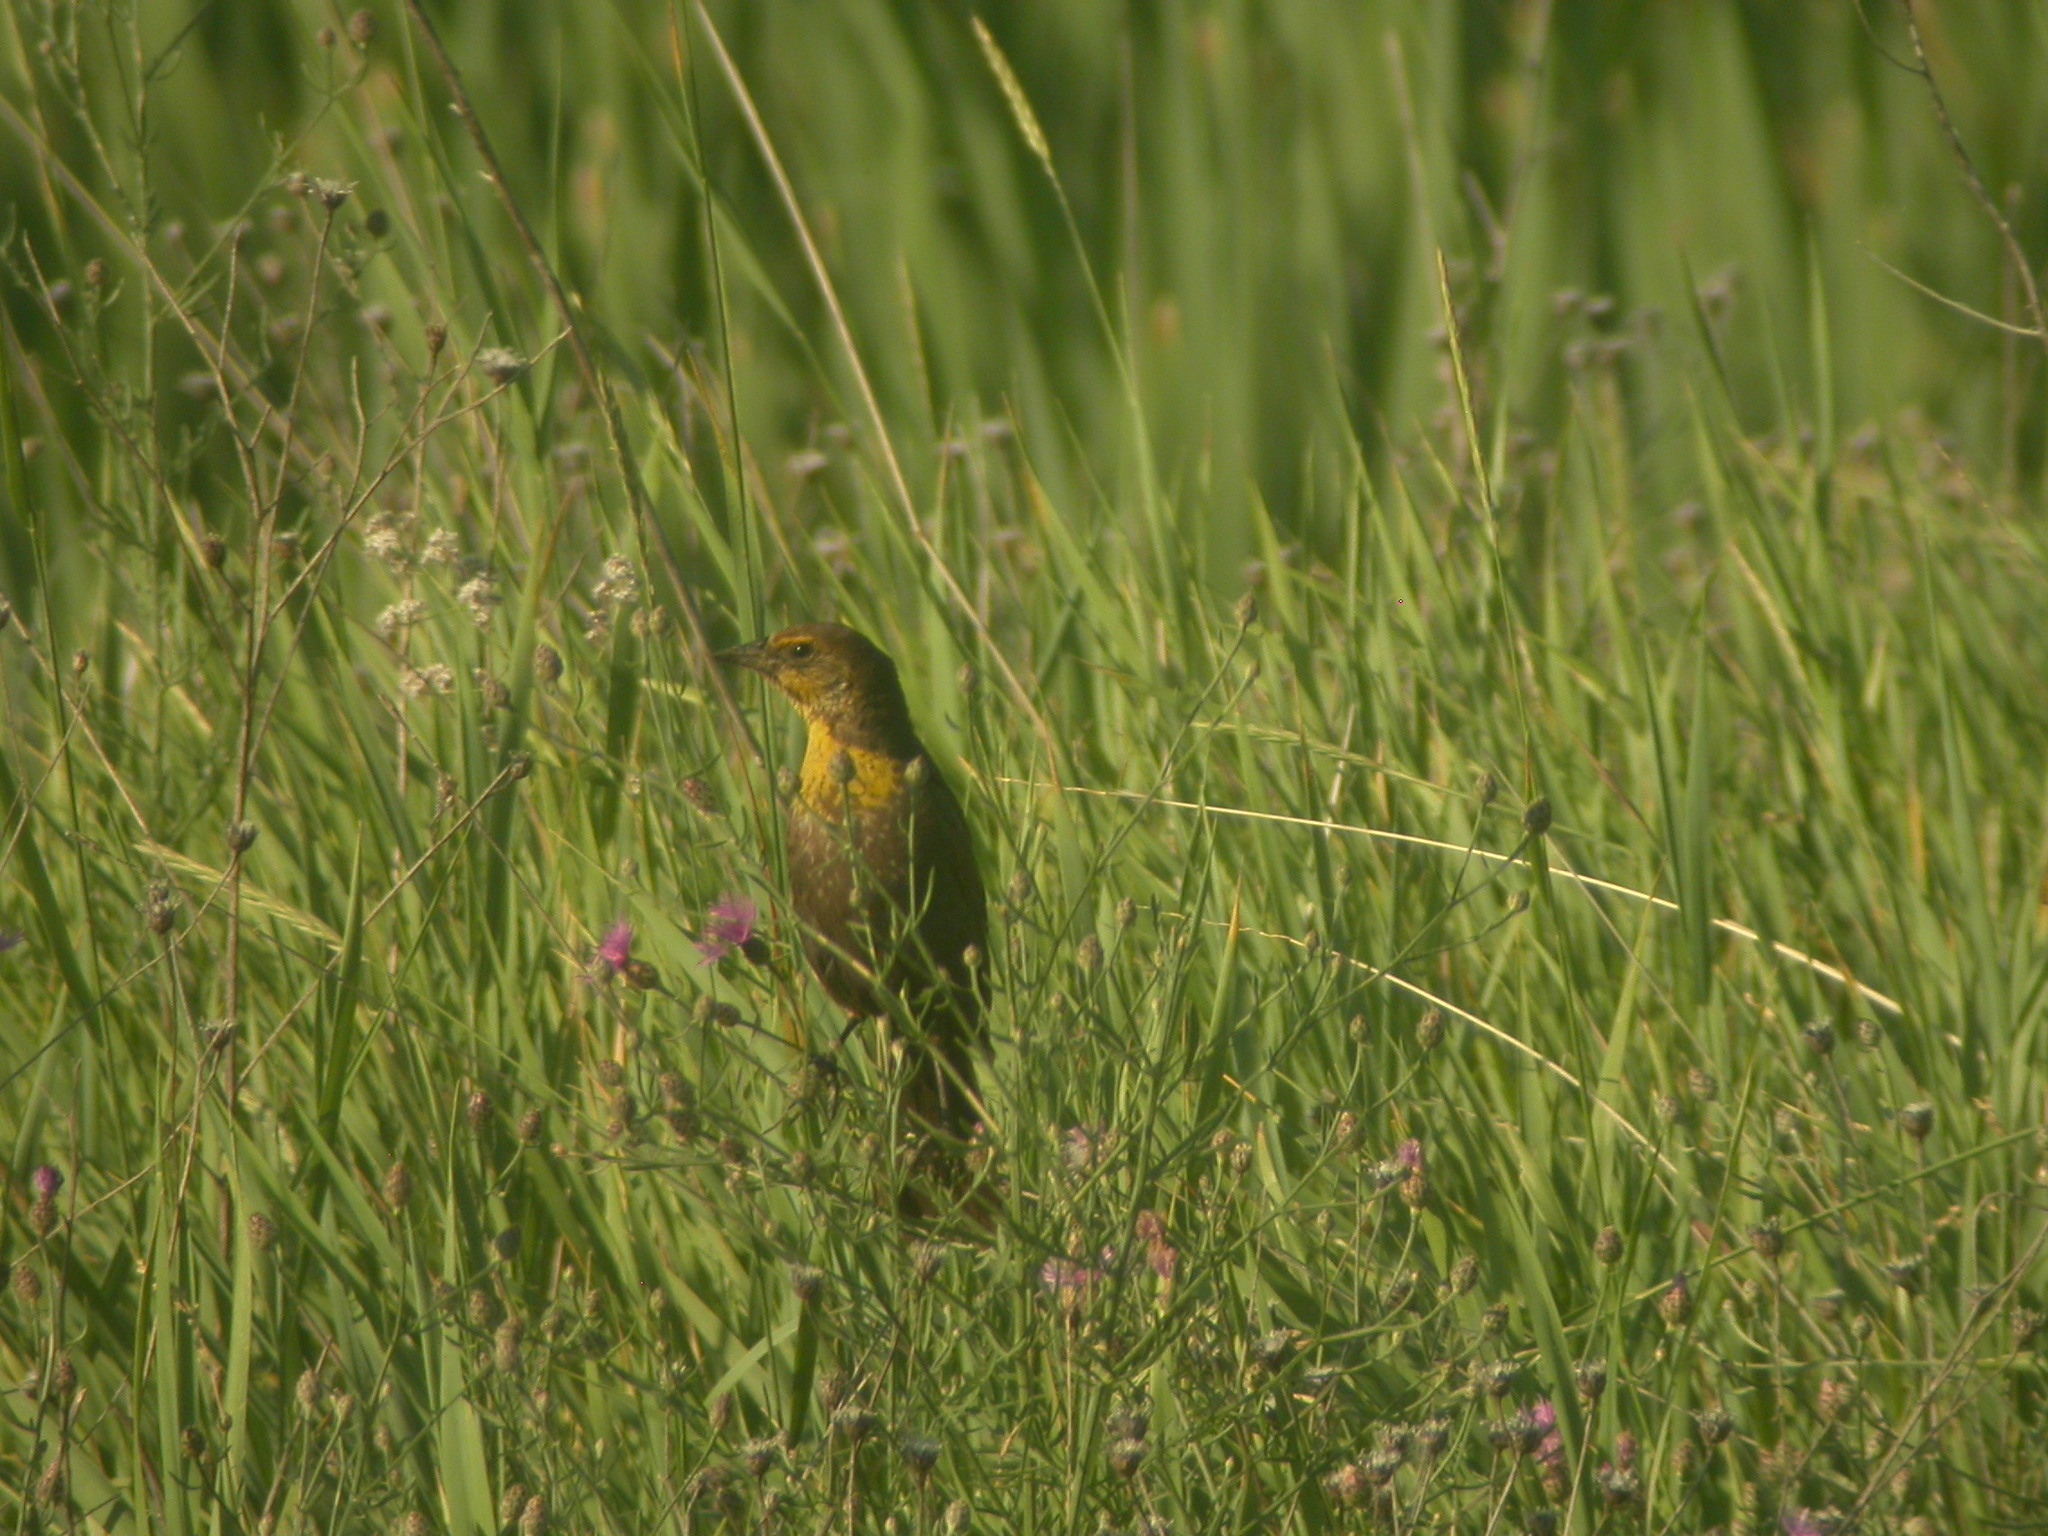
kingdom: Animalia
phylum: Chordata
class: Aves
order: Passeriformes
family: Icteridae
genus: Xanthocephalus
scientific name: Xanthocephalus xanthocephalus
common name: Yellow-headed blackbird
